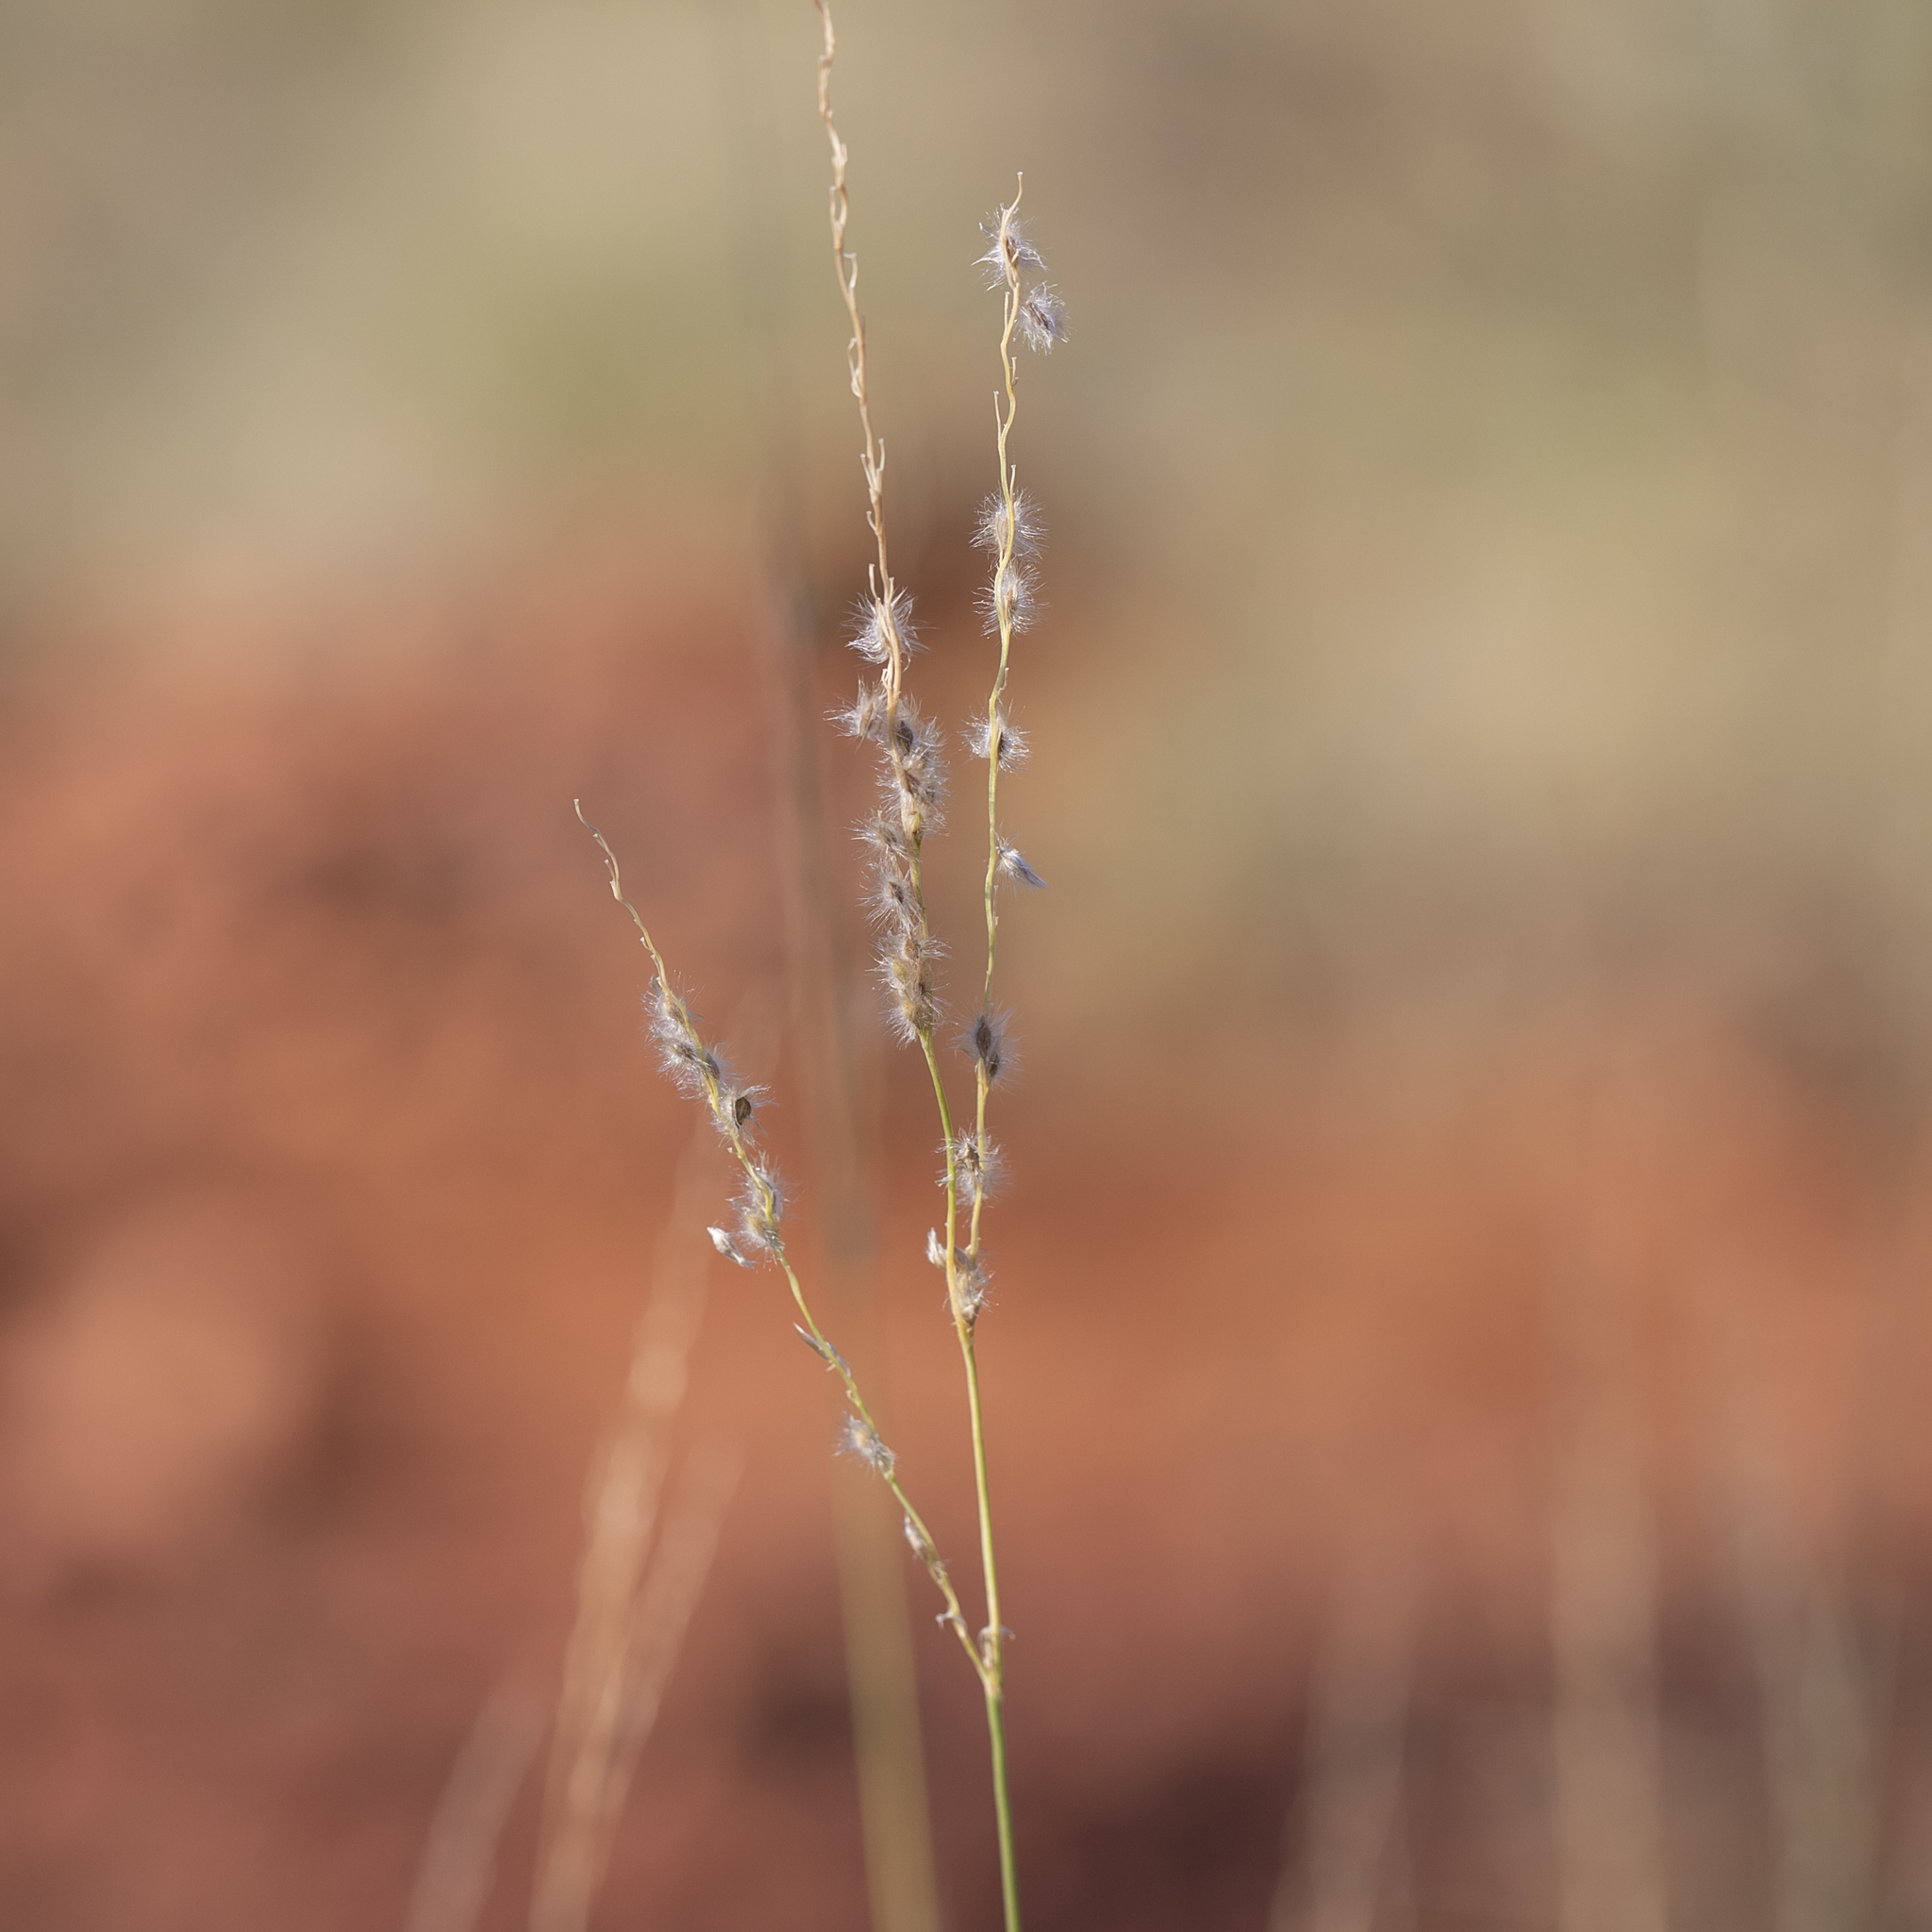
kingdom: Plantae
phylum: Tracheophyta
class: Liliopsida
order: Poales
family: Poaceae
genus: Digitaria
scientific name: Digitaria brownii
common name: Cotton grass
